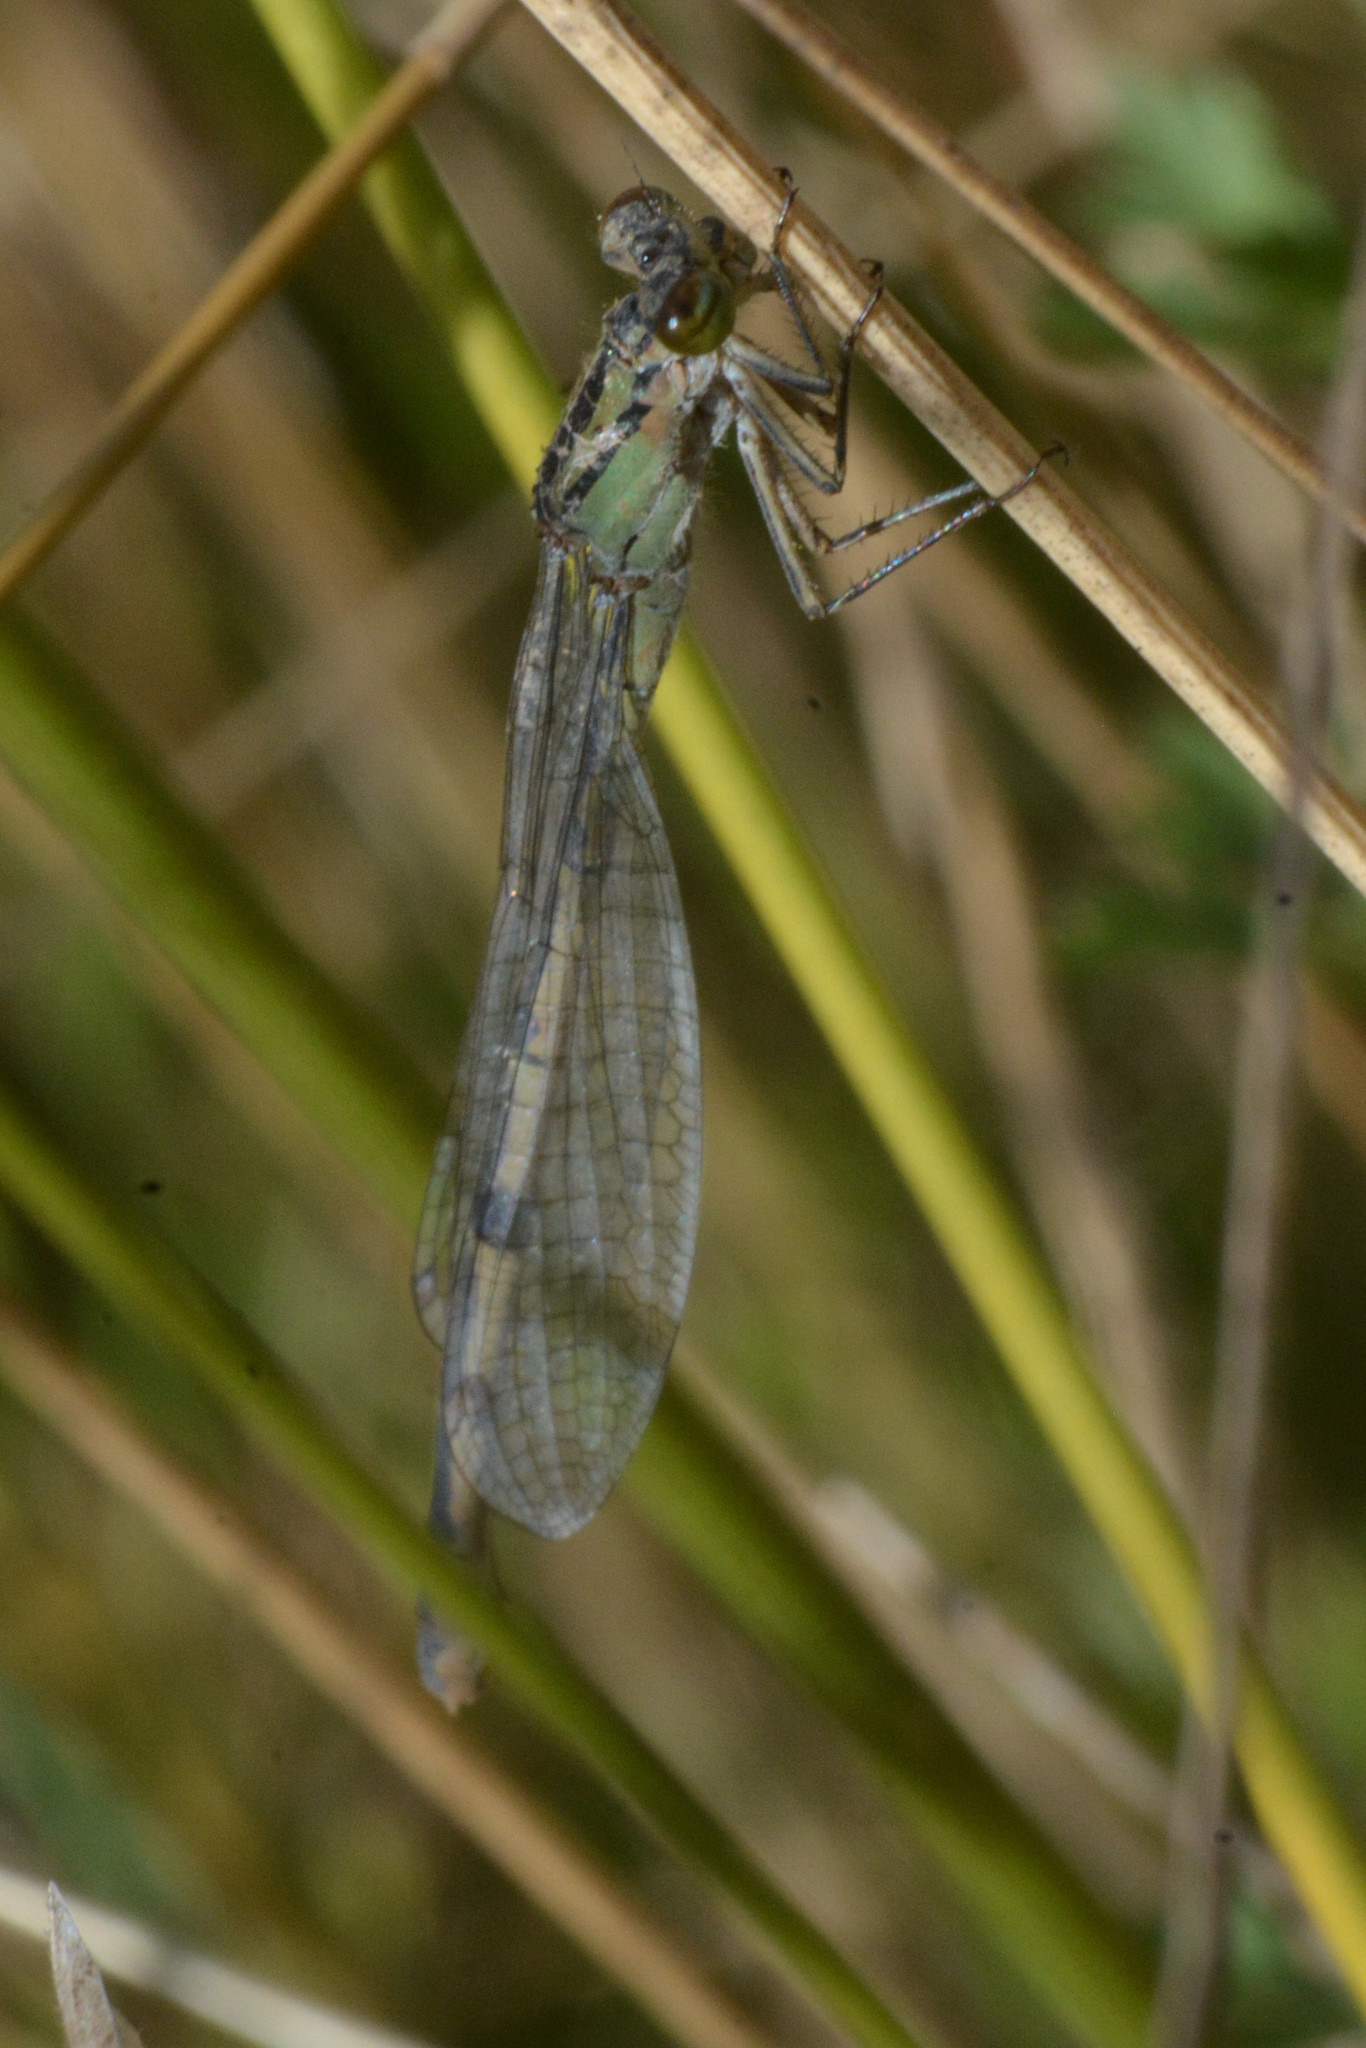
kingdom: Animalia
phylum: Arthropoda
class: Insecta
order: Odonata
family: Coenagrionidae
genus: Enallagma
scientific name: Enallagma cyathigerum
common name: Common blue damselfly
